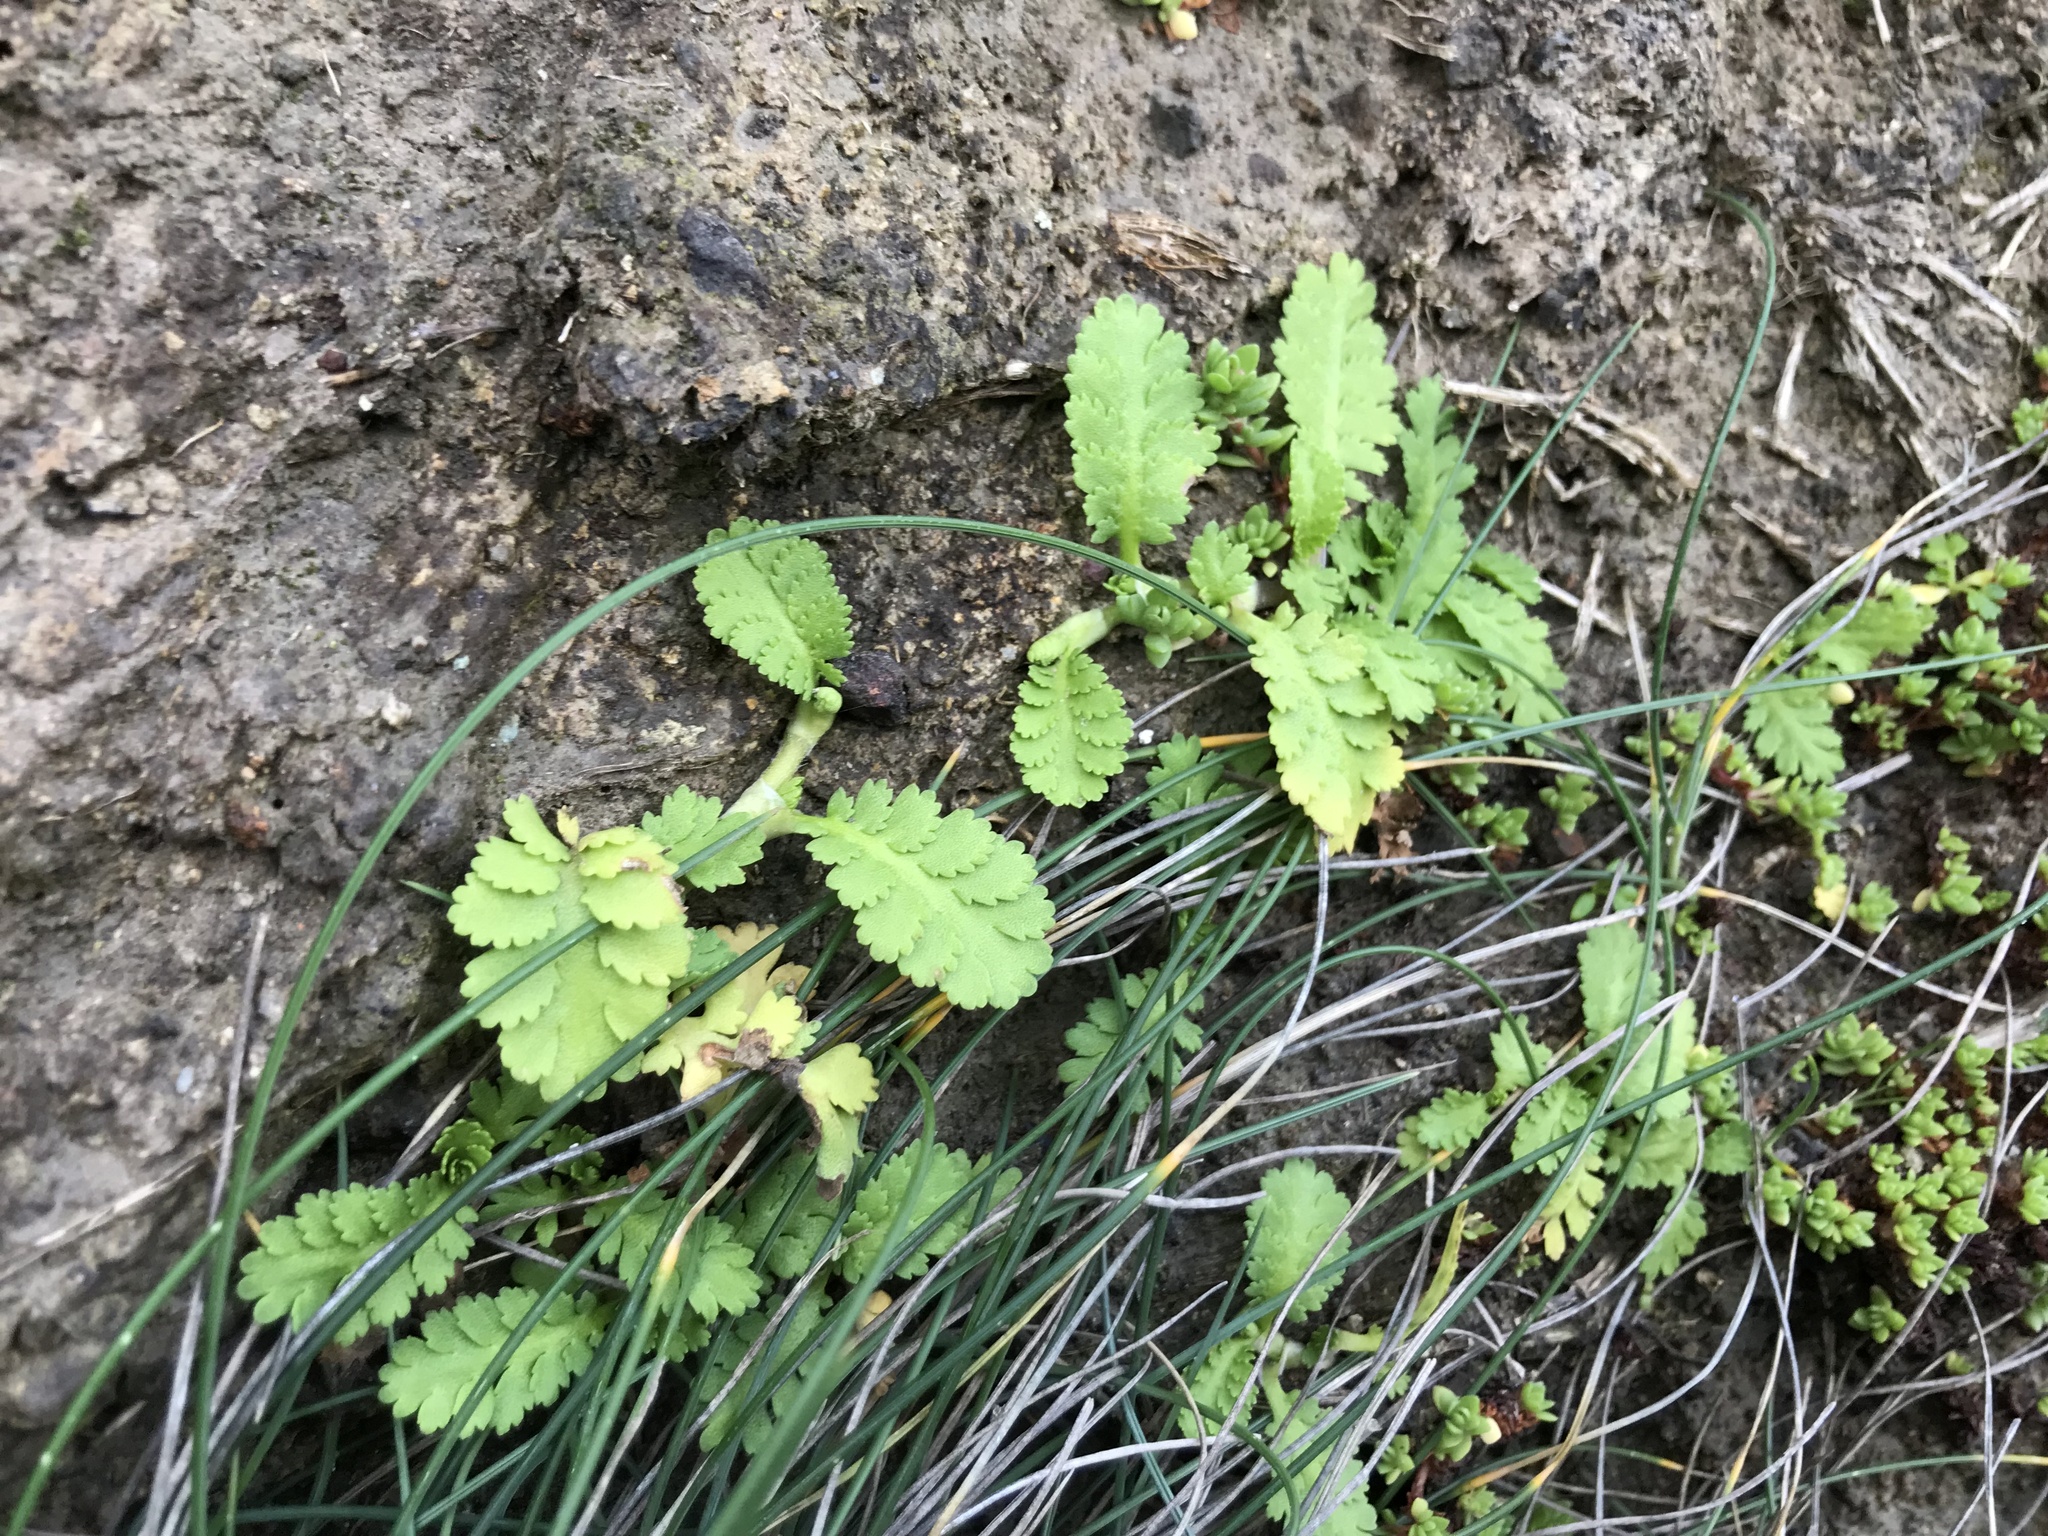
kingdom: Plantae
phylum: Tracheophyta
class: Magnoliopsida
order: Asterales
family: Asteraceae
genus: Leptinella
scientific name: Leptinella potentillina
